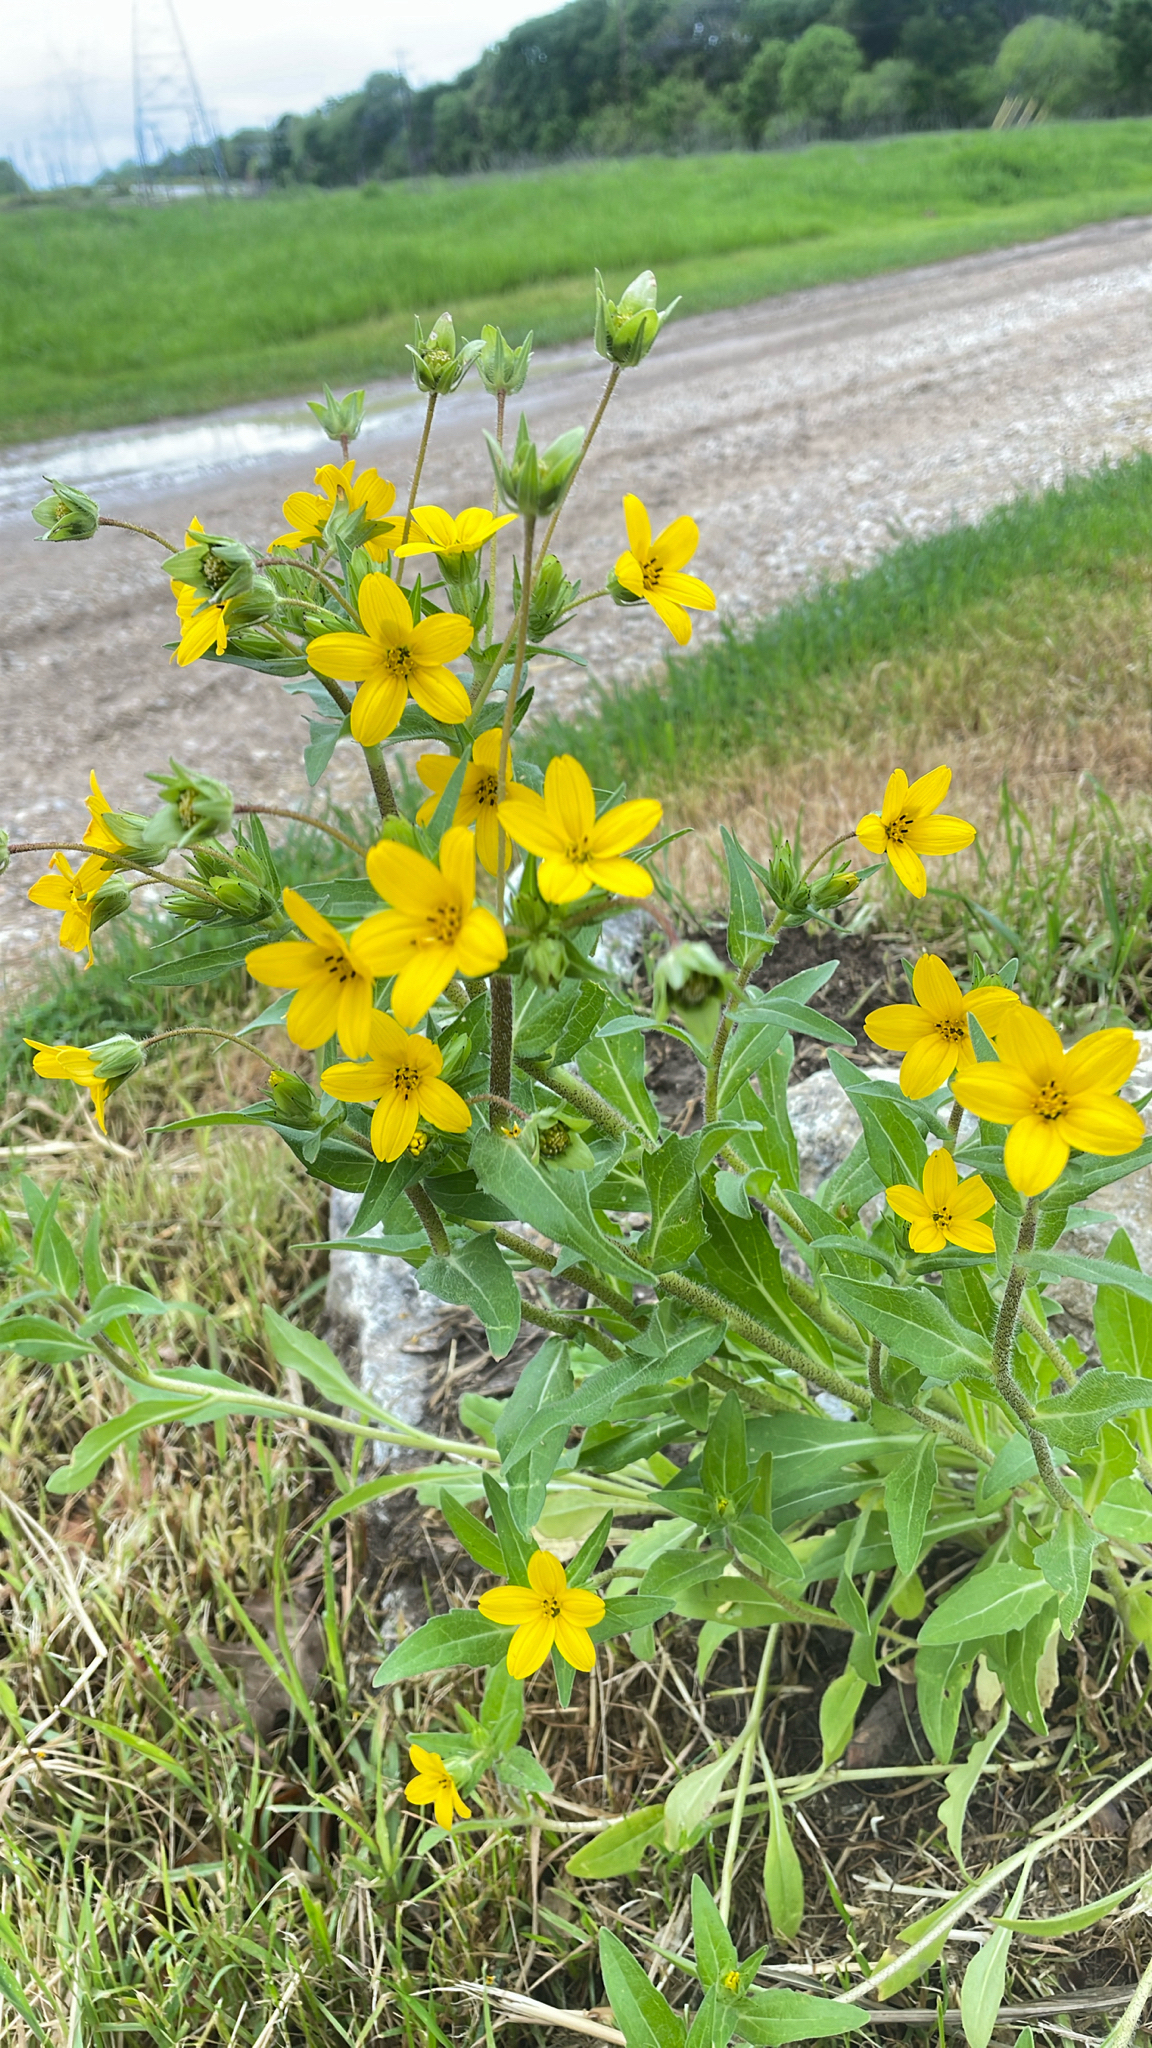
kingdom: Plantae
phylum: Tracheophyta
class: Magnoliopsida
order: Asterales
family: Asteraceae
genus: Lindheimera
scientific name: Lindheimera texana
